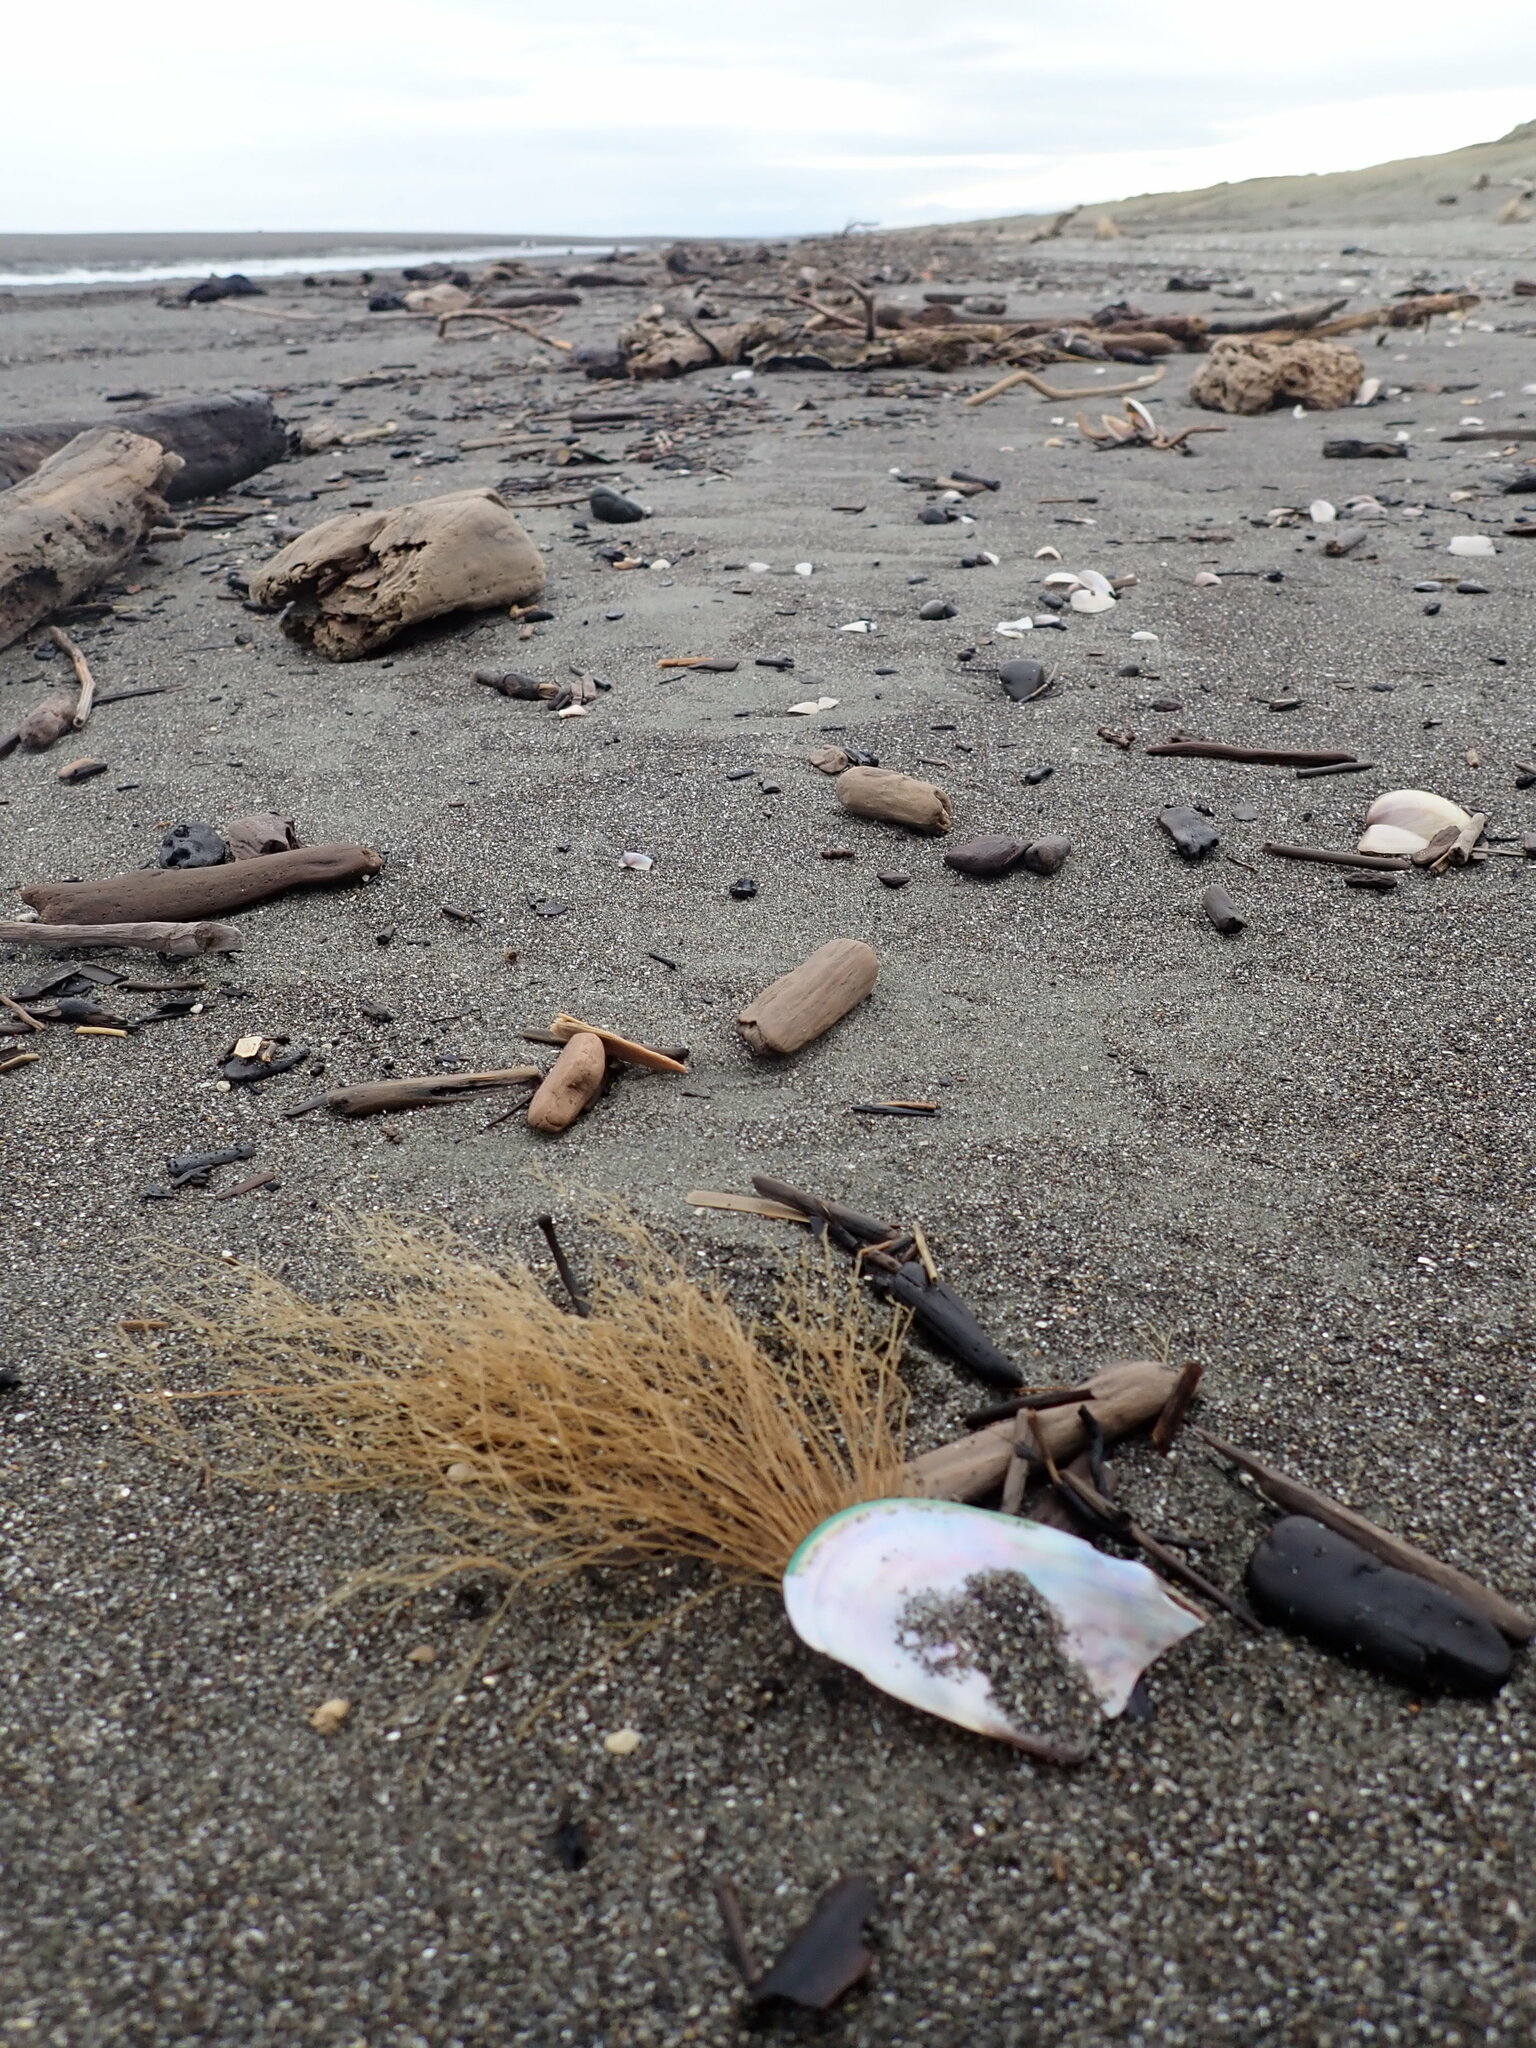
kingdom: Animalia
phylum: Cnidaria
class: Hydrozoa
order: Leptothecata
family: Sertulariidae
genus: Amphisbetia
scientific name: Amphisbetia bispinosa
